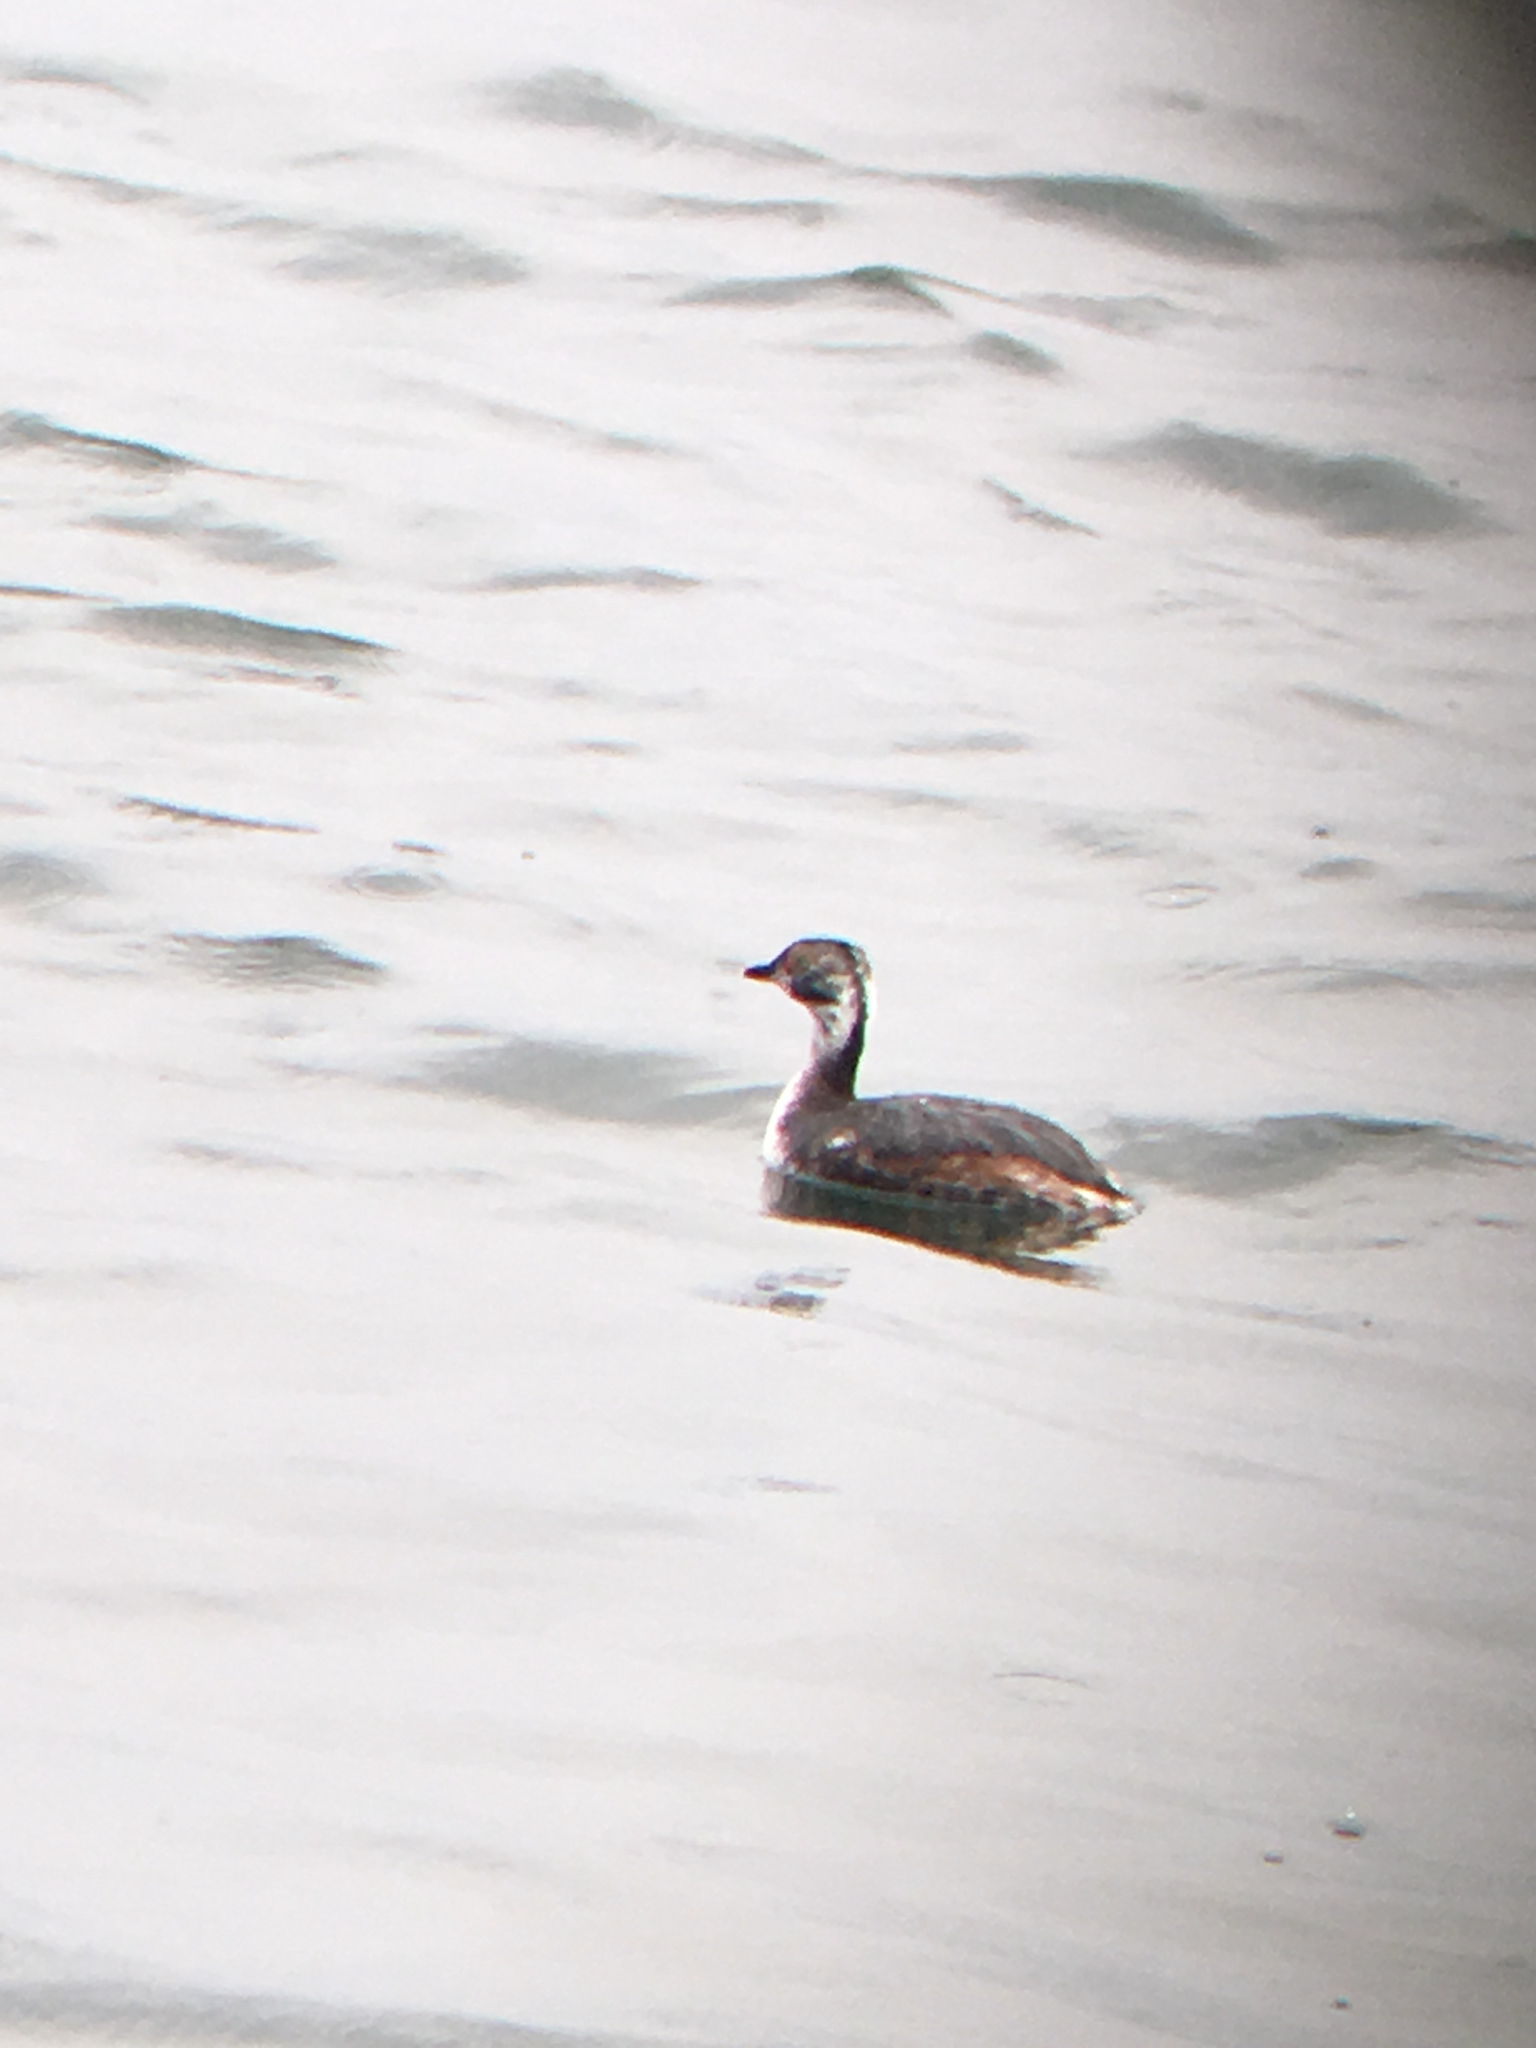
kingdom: Animalia
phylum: Chordata
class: Aves
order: Podicipediformes
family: Podicipedidae
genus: Podiceps
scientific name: Podiceps auritus
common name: Horned grebe
